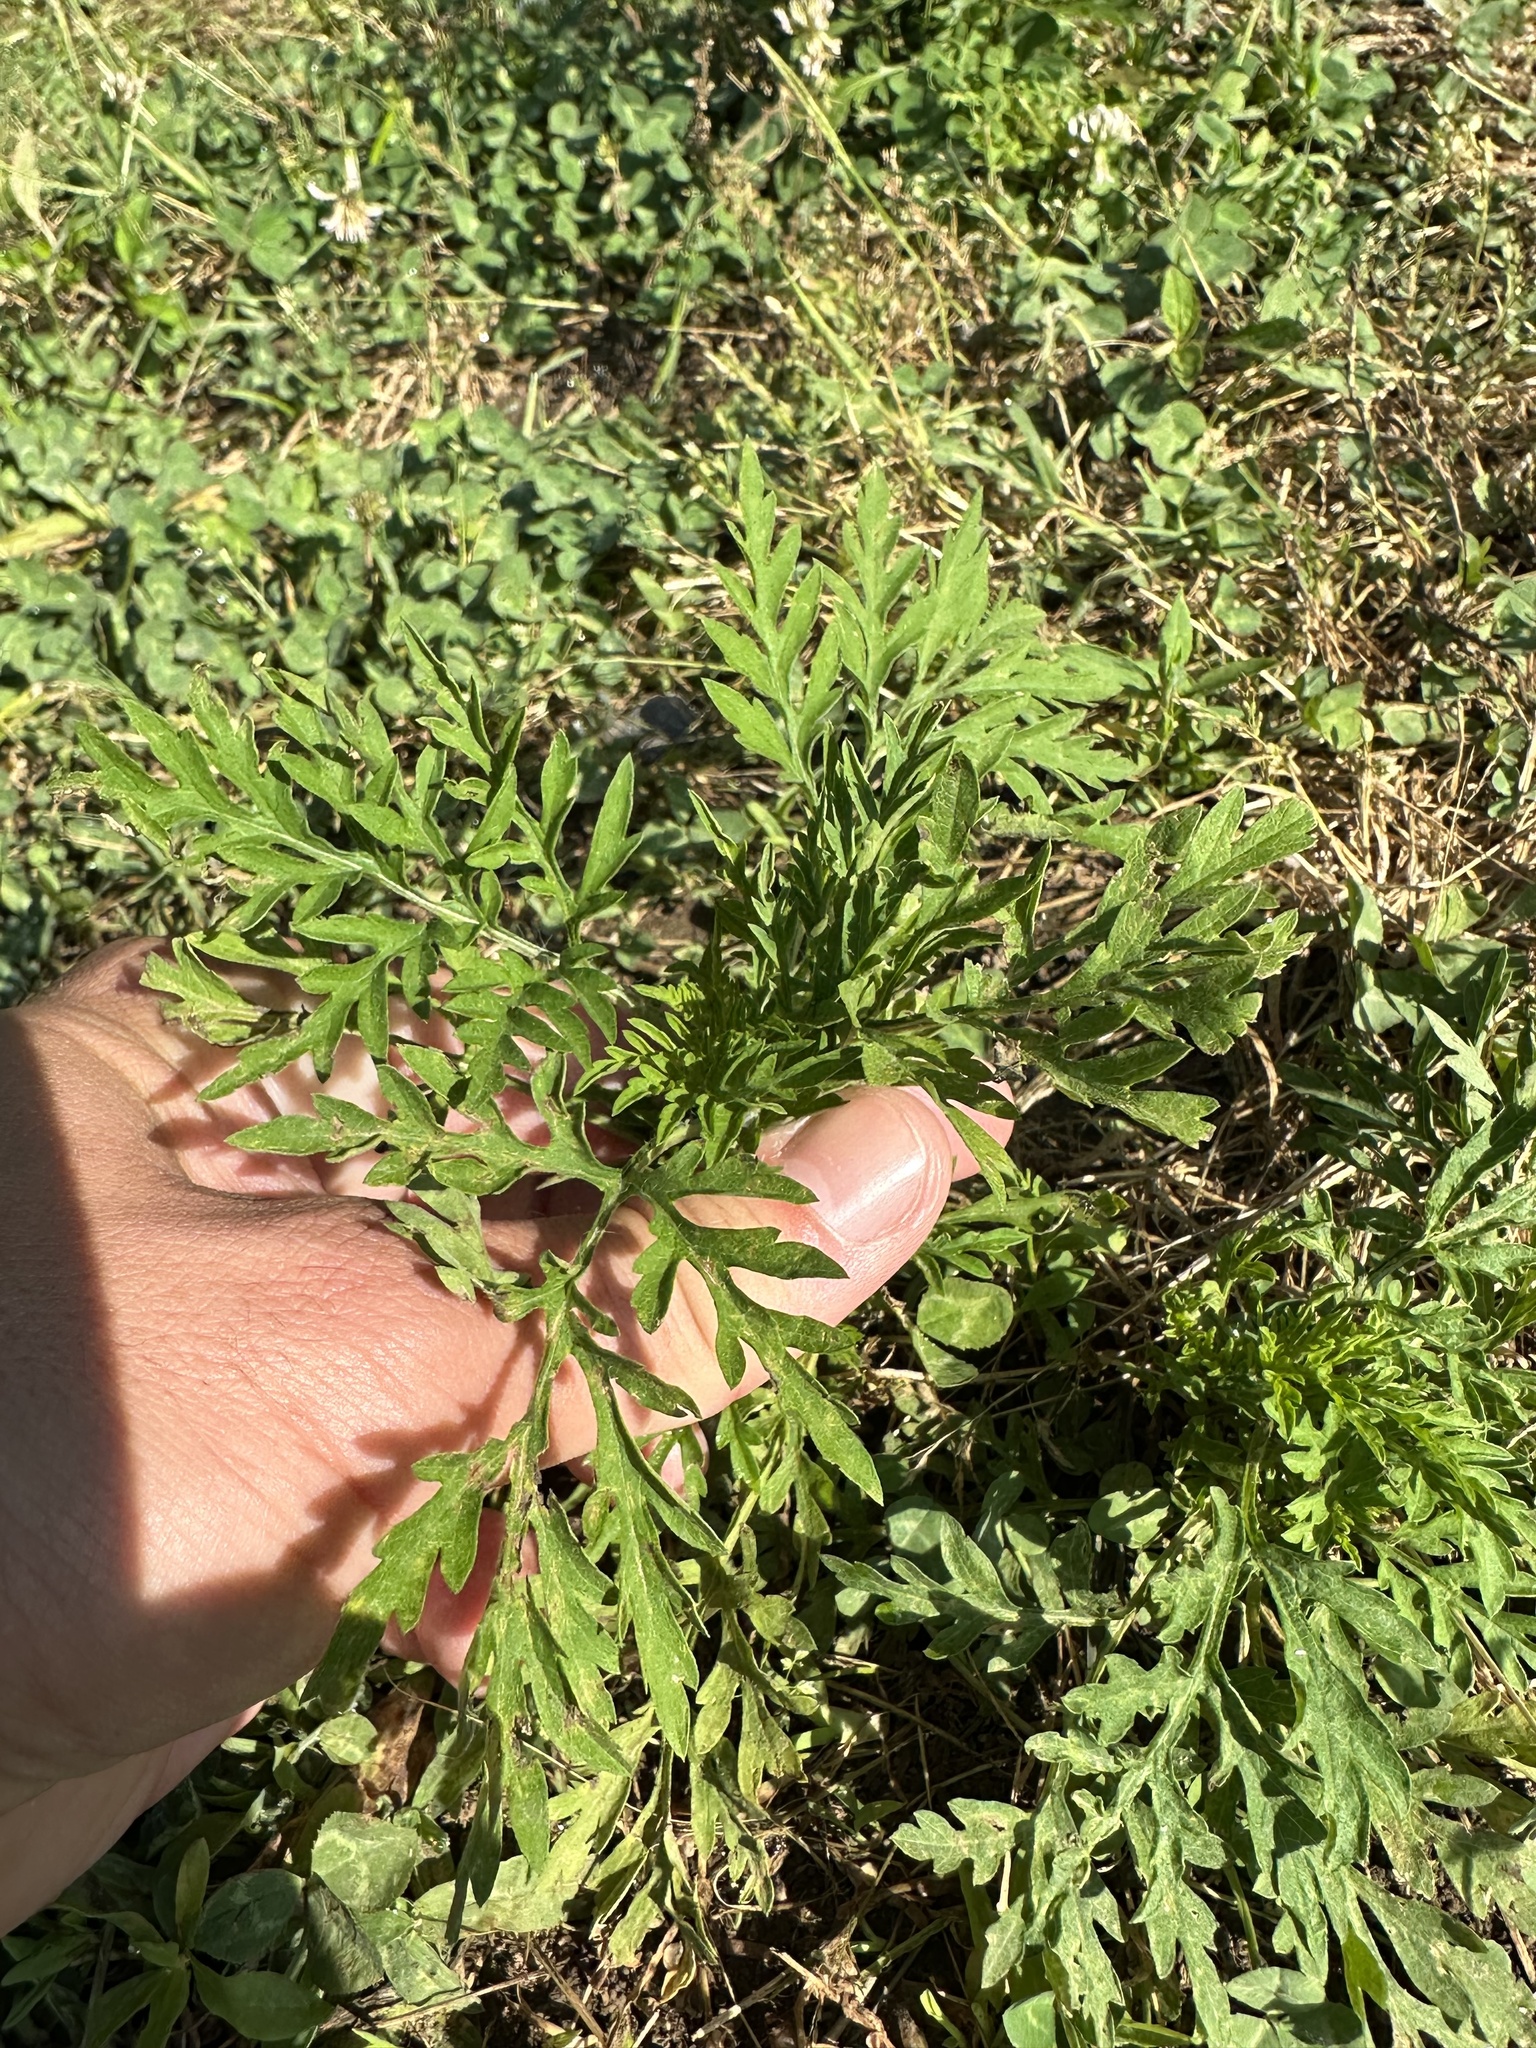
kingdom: Plantae
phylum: Tracheophyta
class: Magnoliopsida
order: Asterales
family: Asteraceae
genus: Ambrosia
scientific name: Ambrosia artemisiifolia
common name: Annual ragweed
